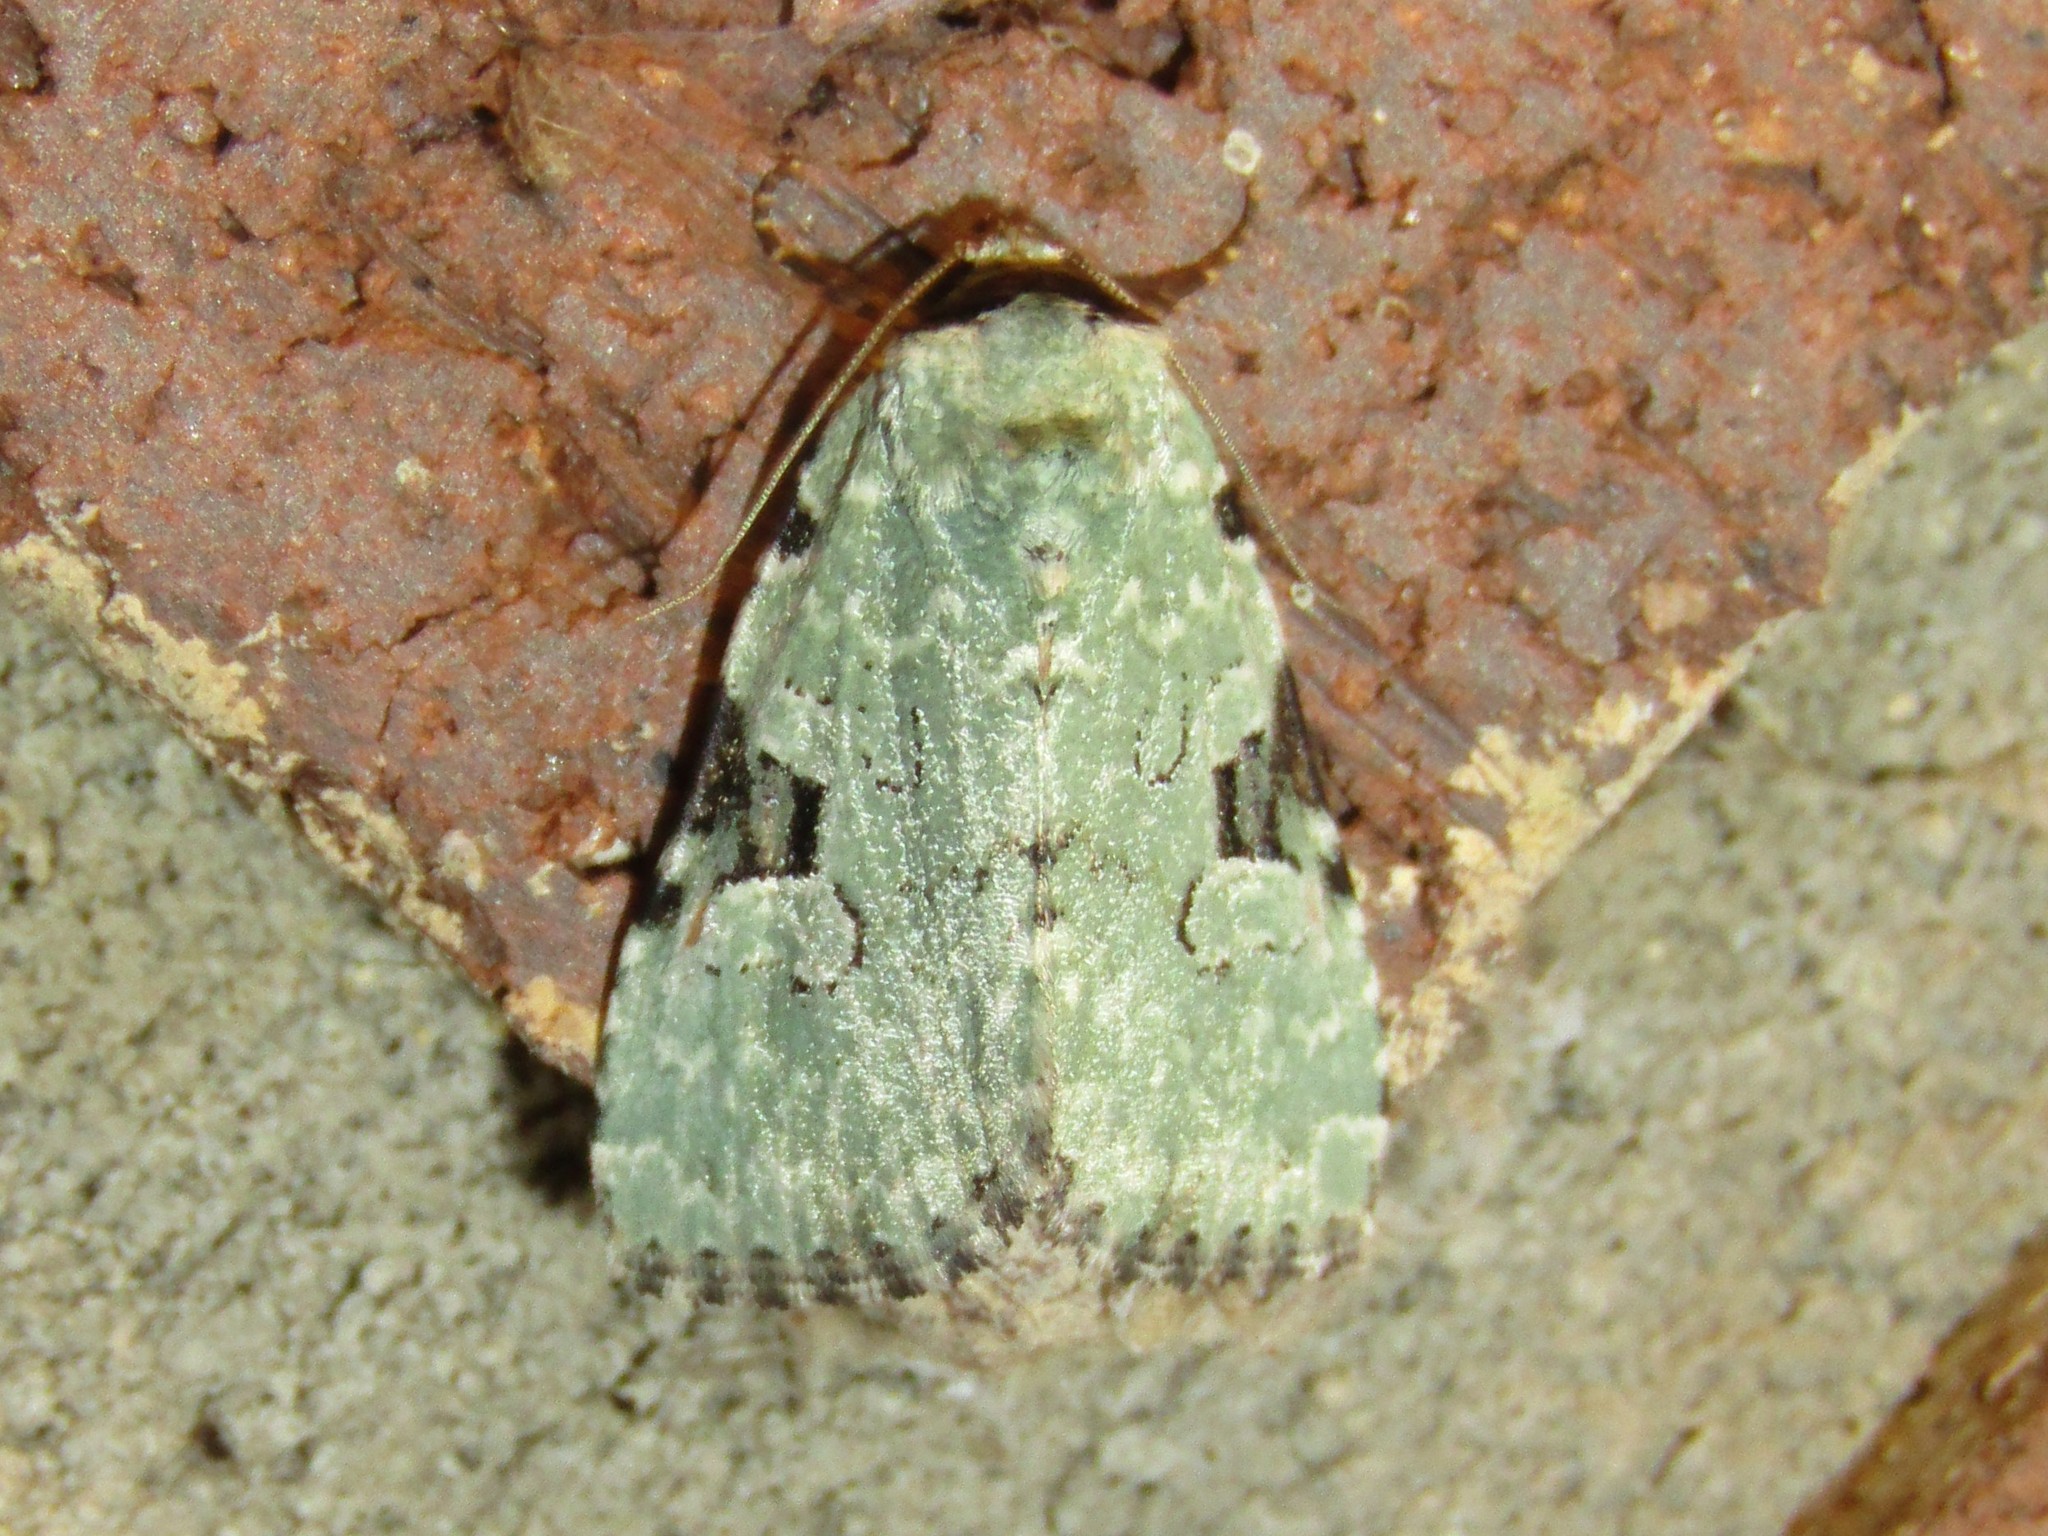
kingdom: Animalia
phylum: Arthropoda
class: Insecta
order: Lepidoptera
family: Noctuidae
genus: Leuconycta
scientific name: Leuconycta diphteroides
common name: Green leuconycta moth
